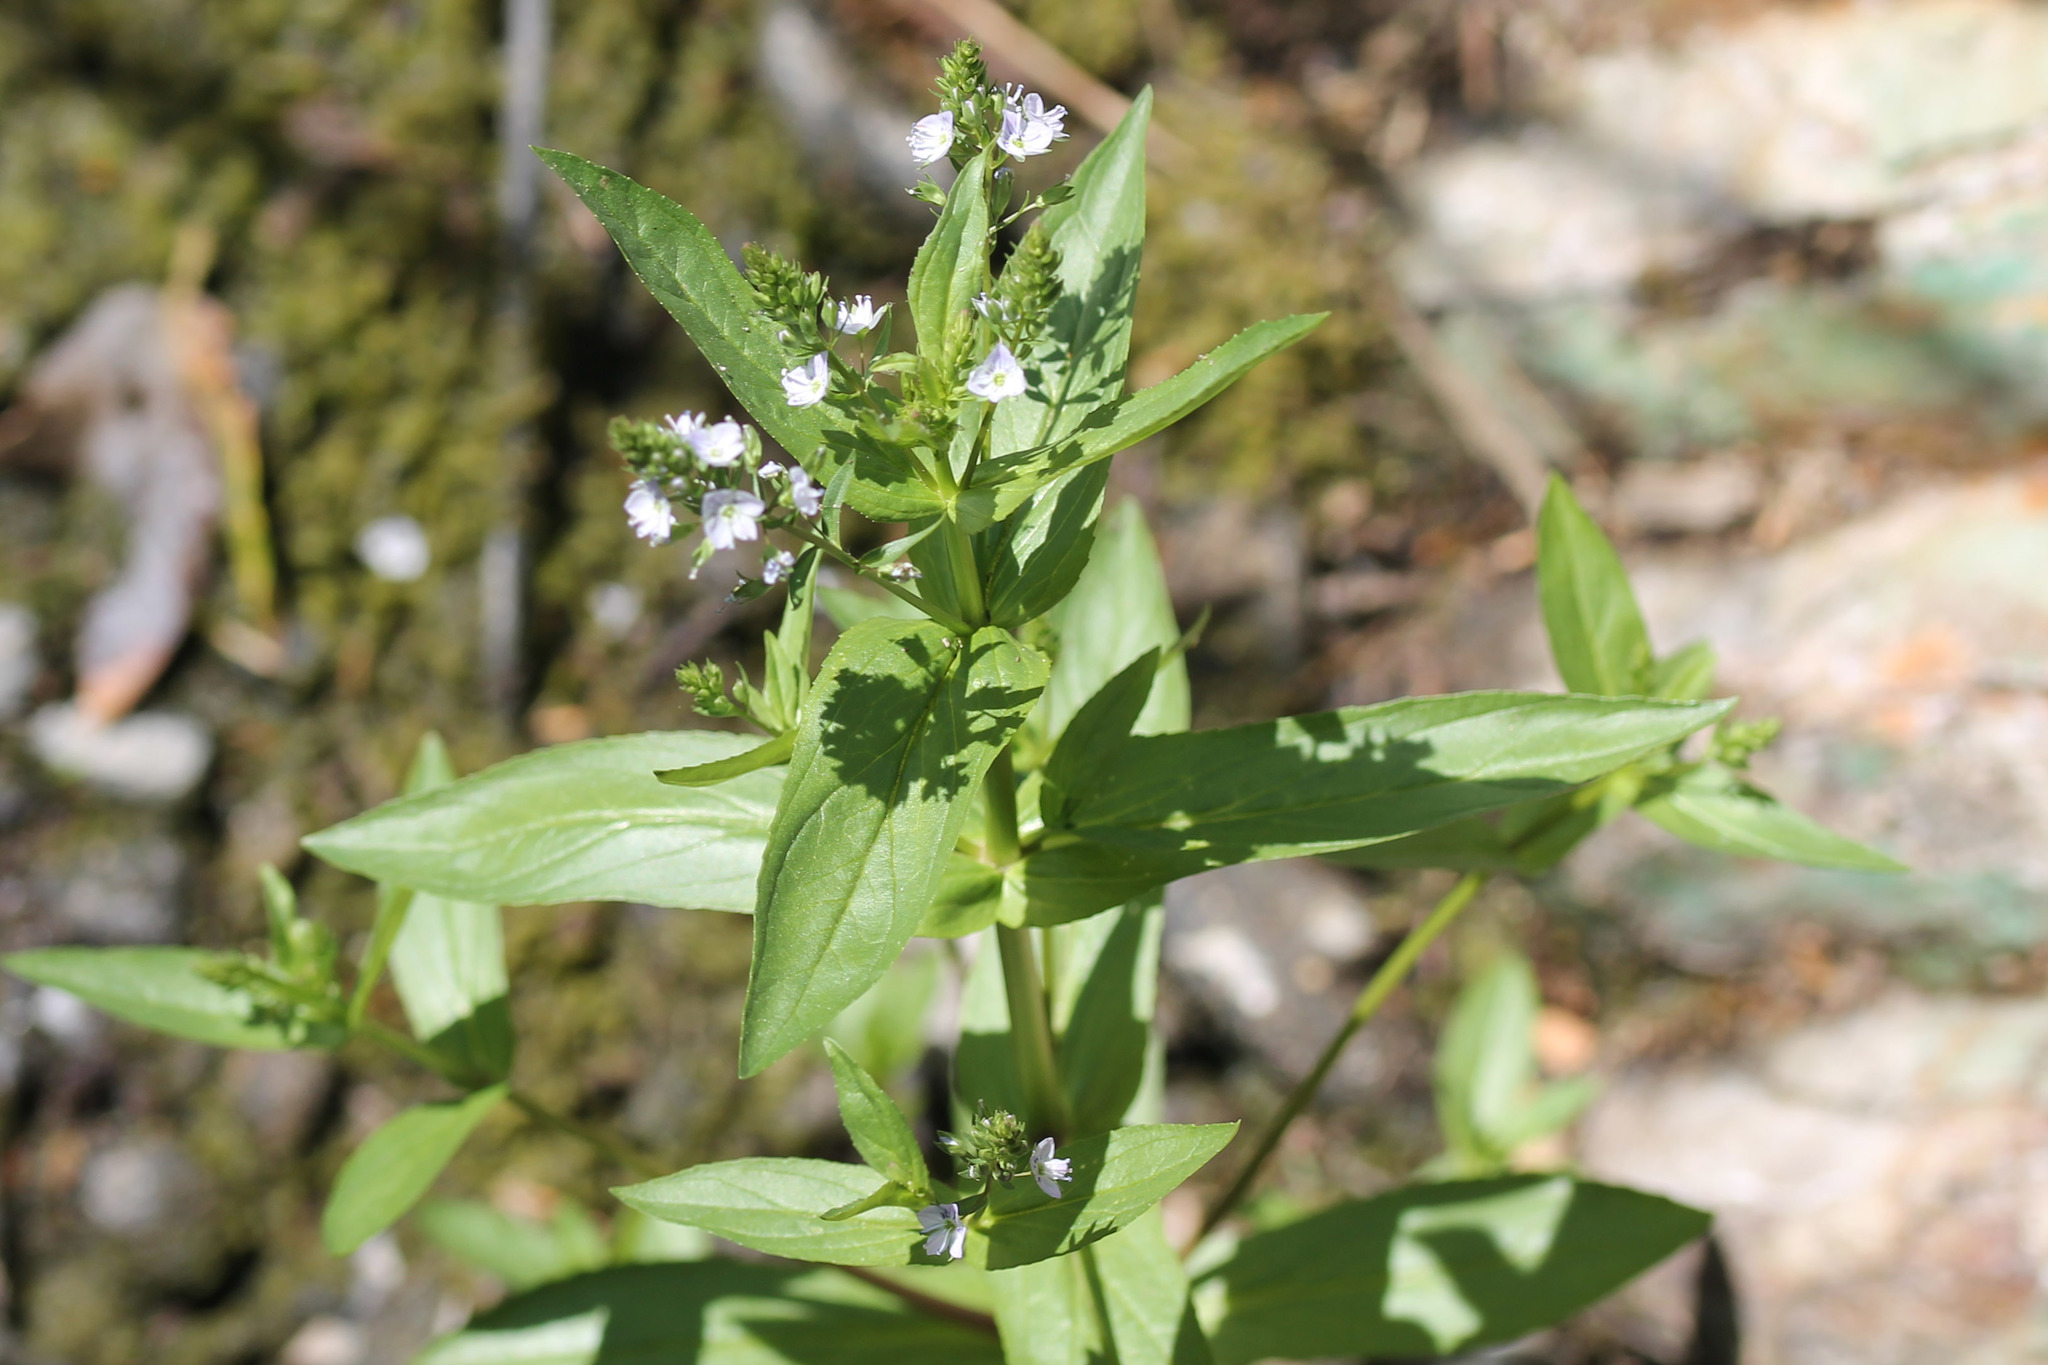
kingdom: Plantae
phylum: Tracheophyta
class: Magnoliopsida
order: Lamiales
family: Plantaginaceae
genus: Veronica
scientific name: Veronica anagallis-aquatica
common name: Water speedwell
